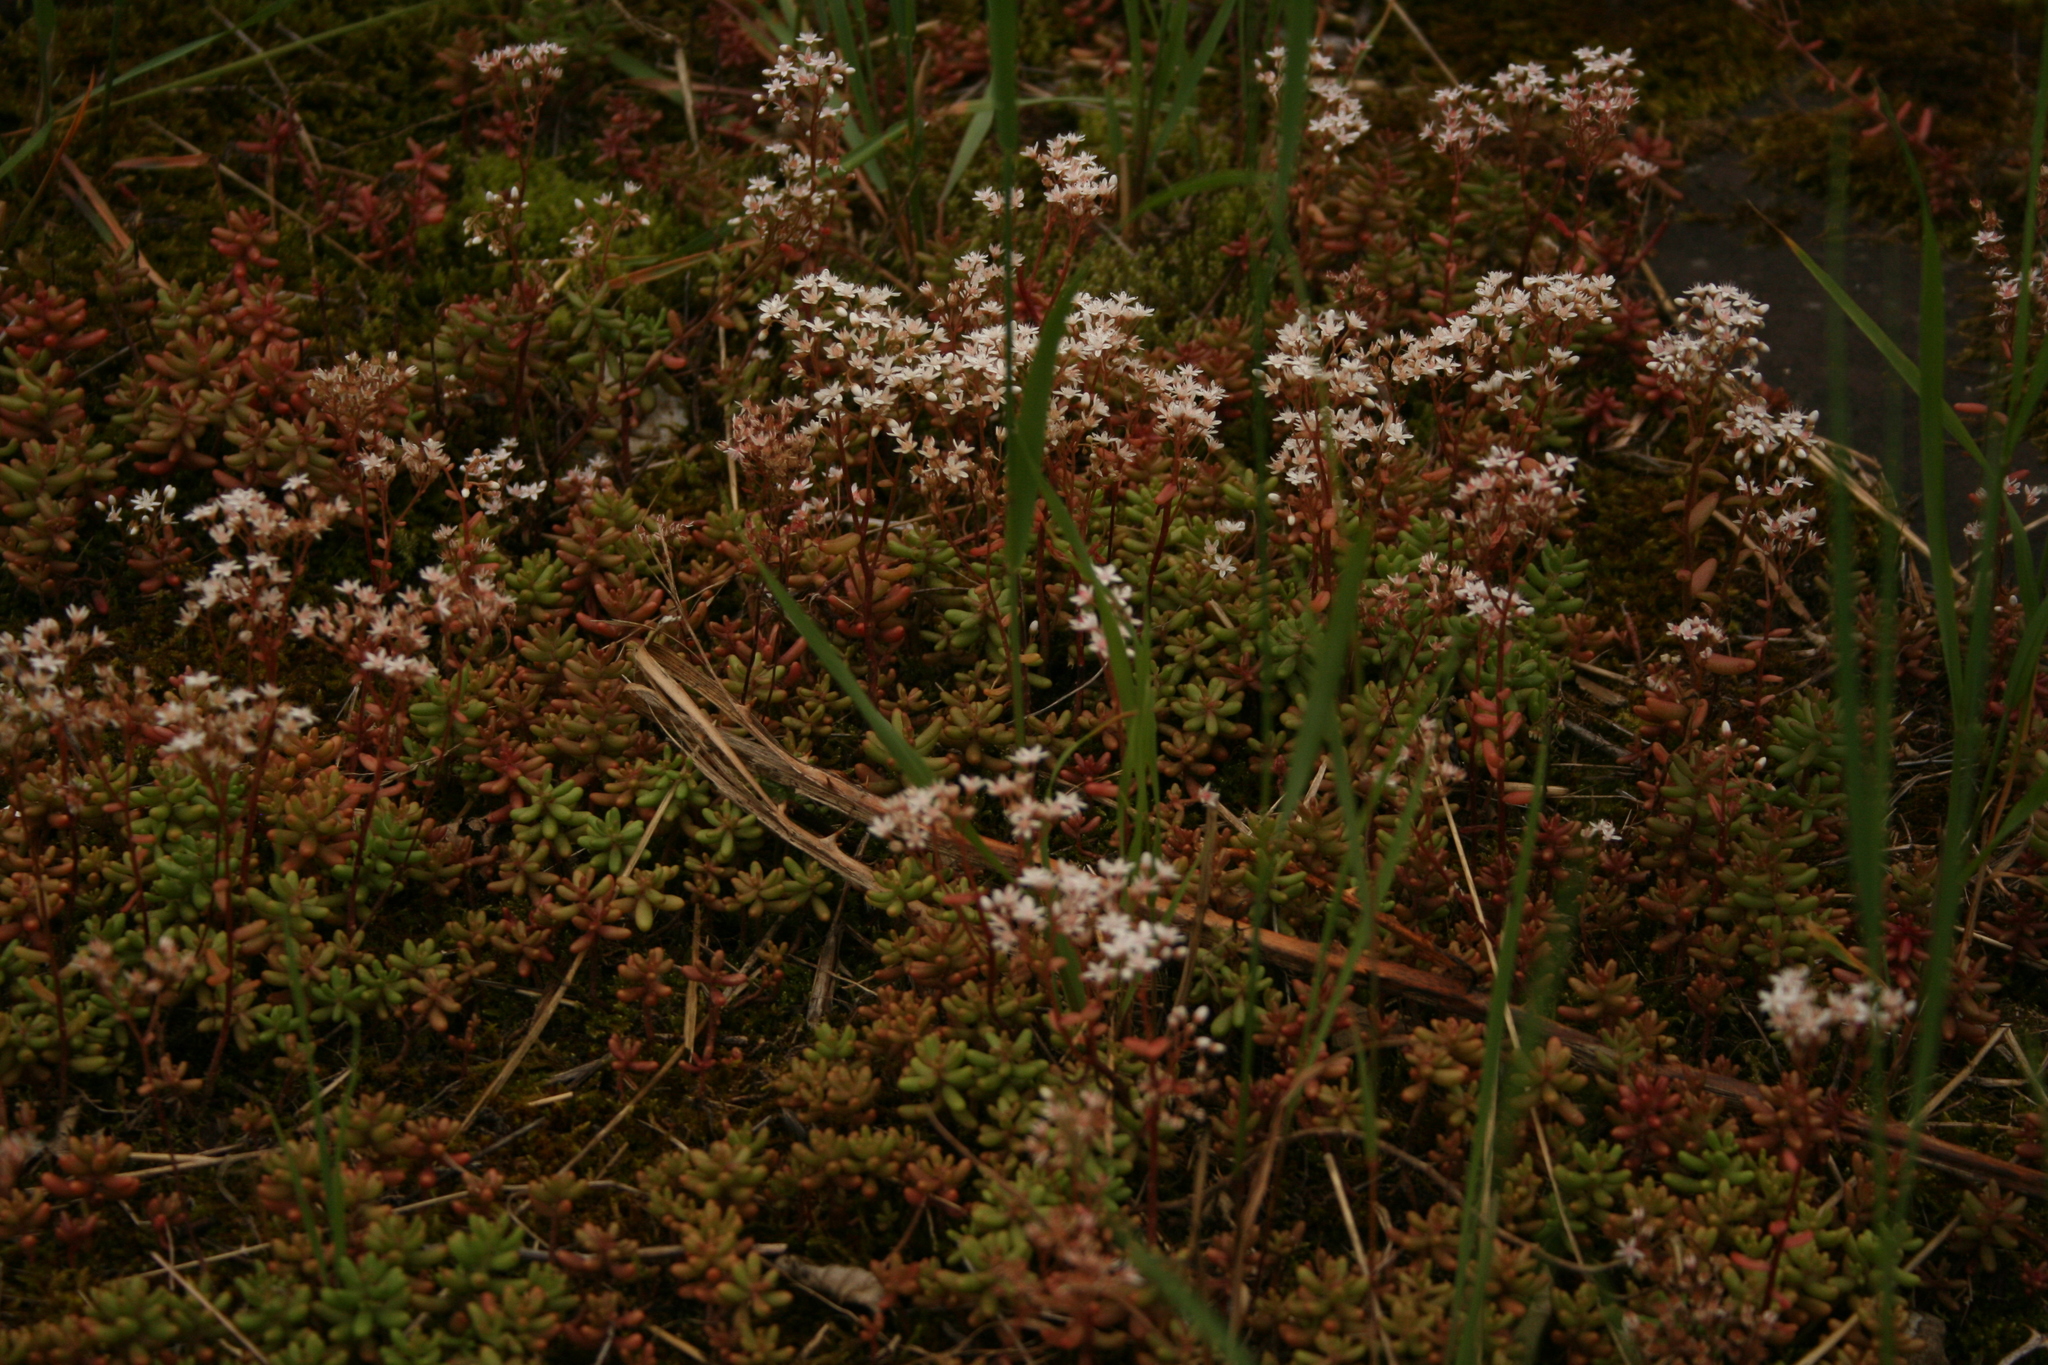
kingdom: Plantae
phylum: Tracheophyta
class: Magnoliopsida
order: Saxifragales
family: Crassulaceae
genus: Sedum
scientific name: Sedum album
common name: White stonecrop
